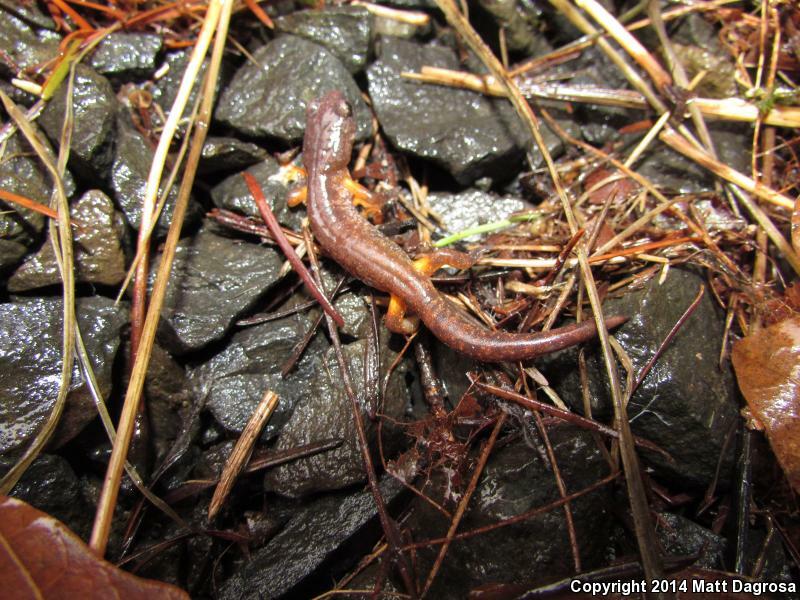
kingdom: Animalia
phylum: Chordata
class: Amphibia
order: Caudata
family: Plethodontidae
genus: Ensatina
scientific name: Ensatina eschscholtzii
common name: Ensatina
